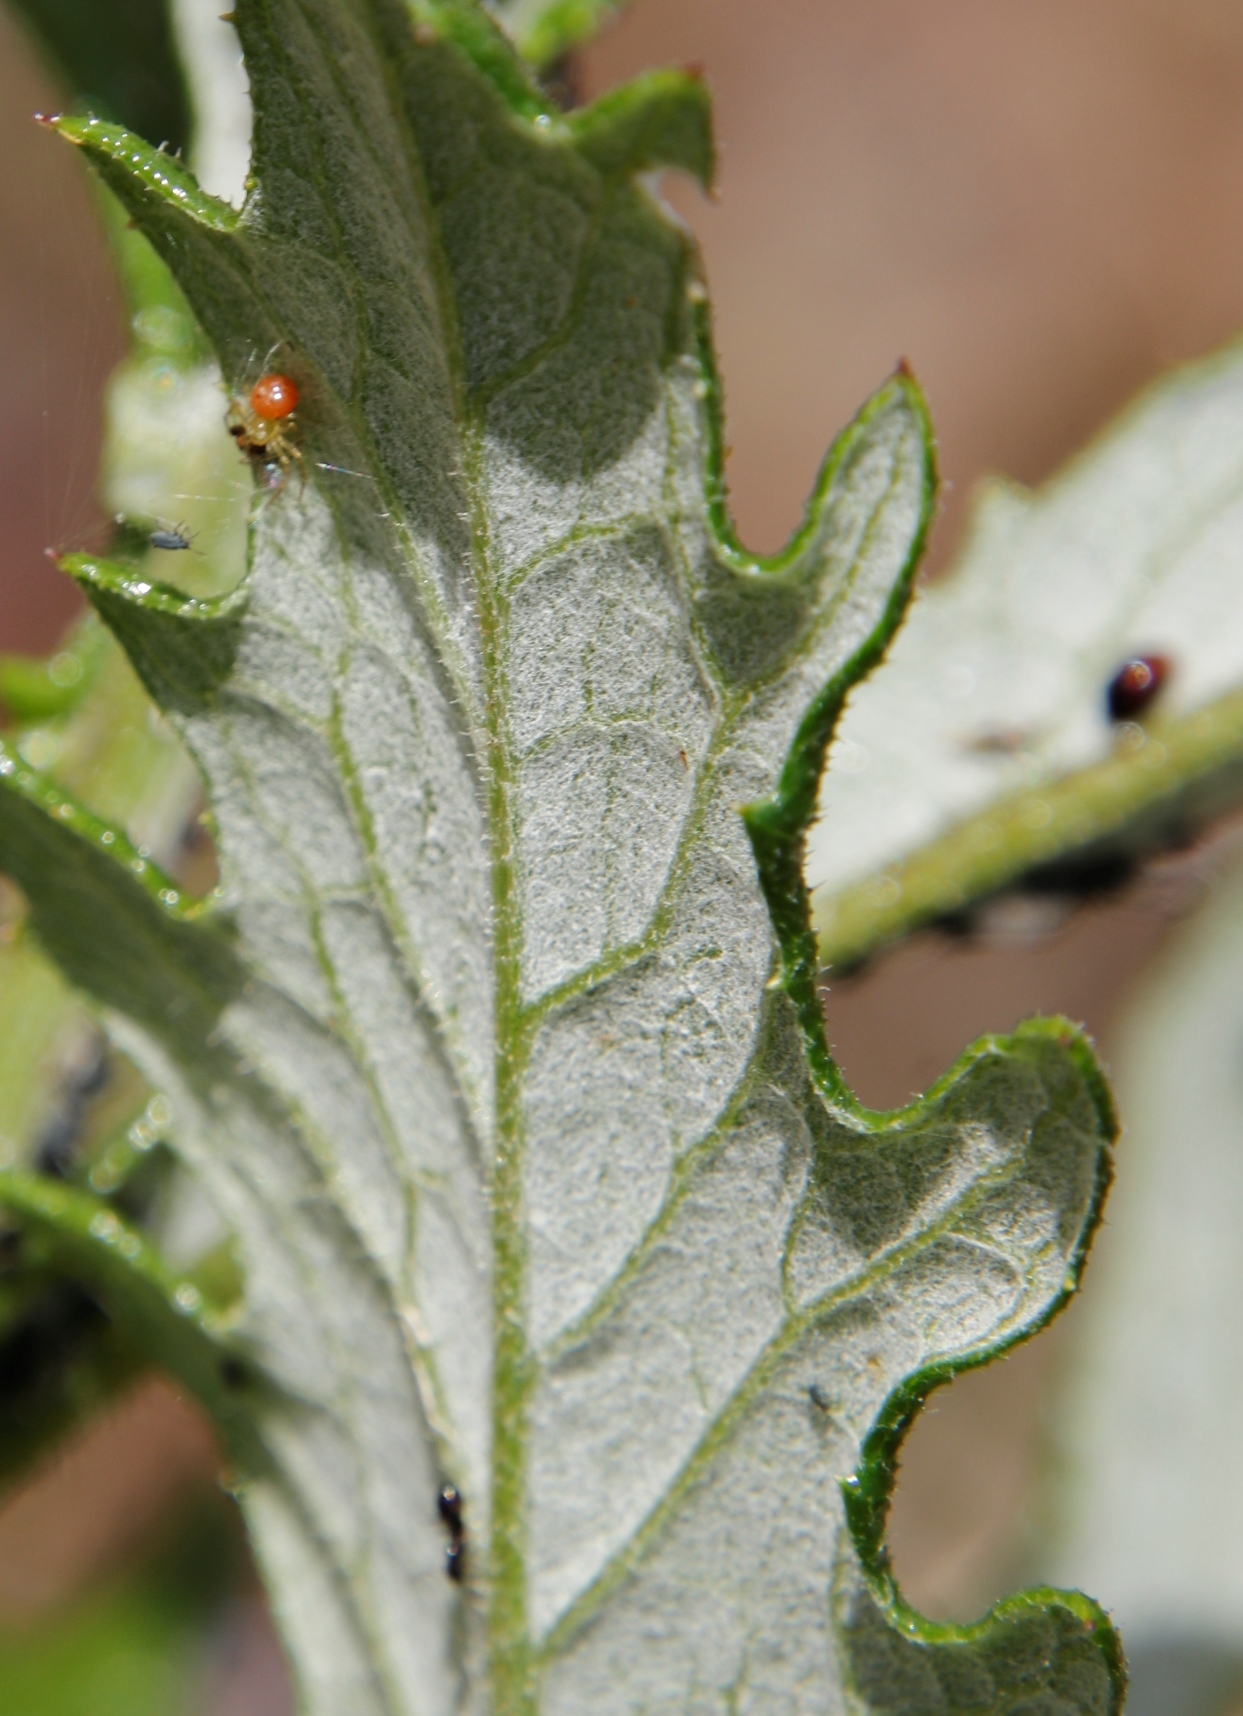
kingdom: Animalia
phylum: Arthropoda
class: Insecta
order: Hymenoptera
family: Formicidae
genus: Lepisiota
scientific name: Lepisiota capensis
